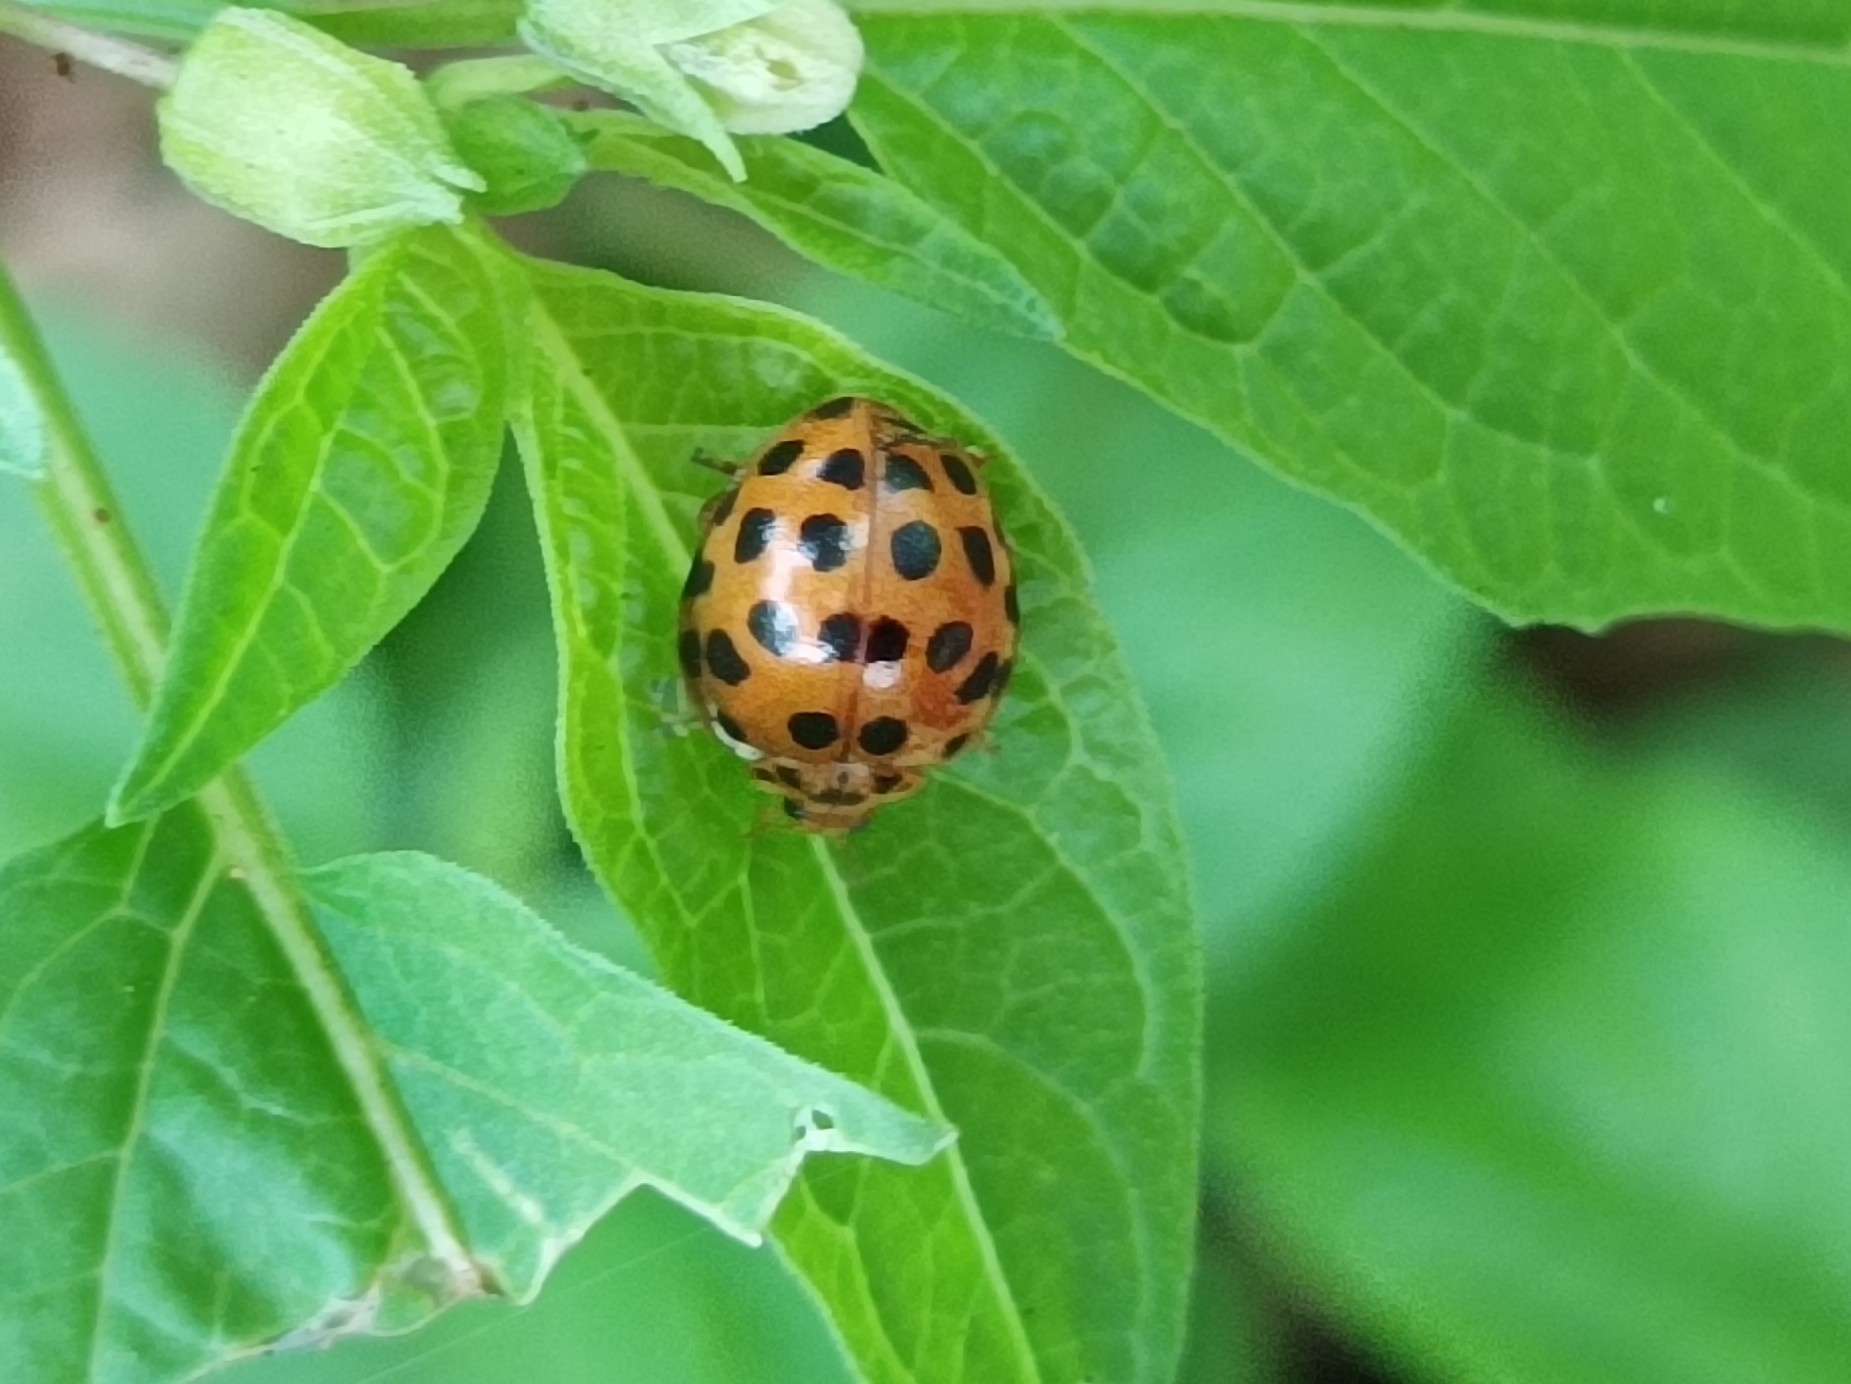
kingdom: Animalia
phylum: Arthropoda
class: Insecta
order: Coleoptera
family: Coccinellidae
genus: Henosepilachna
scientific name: Henosepilachna vigintioctopunctata
